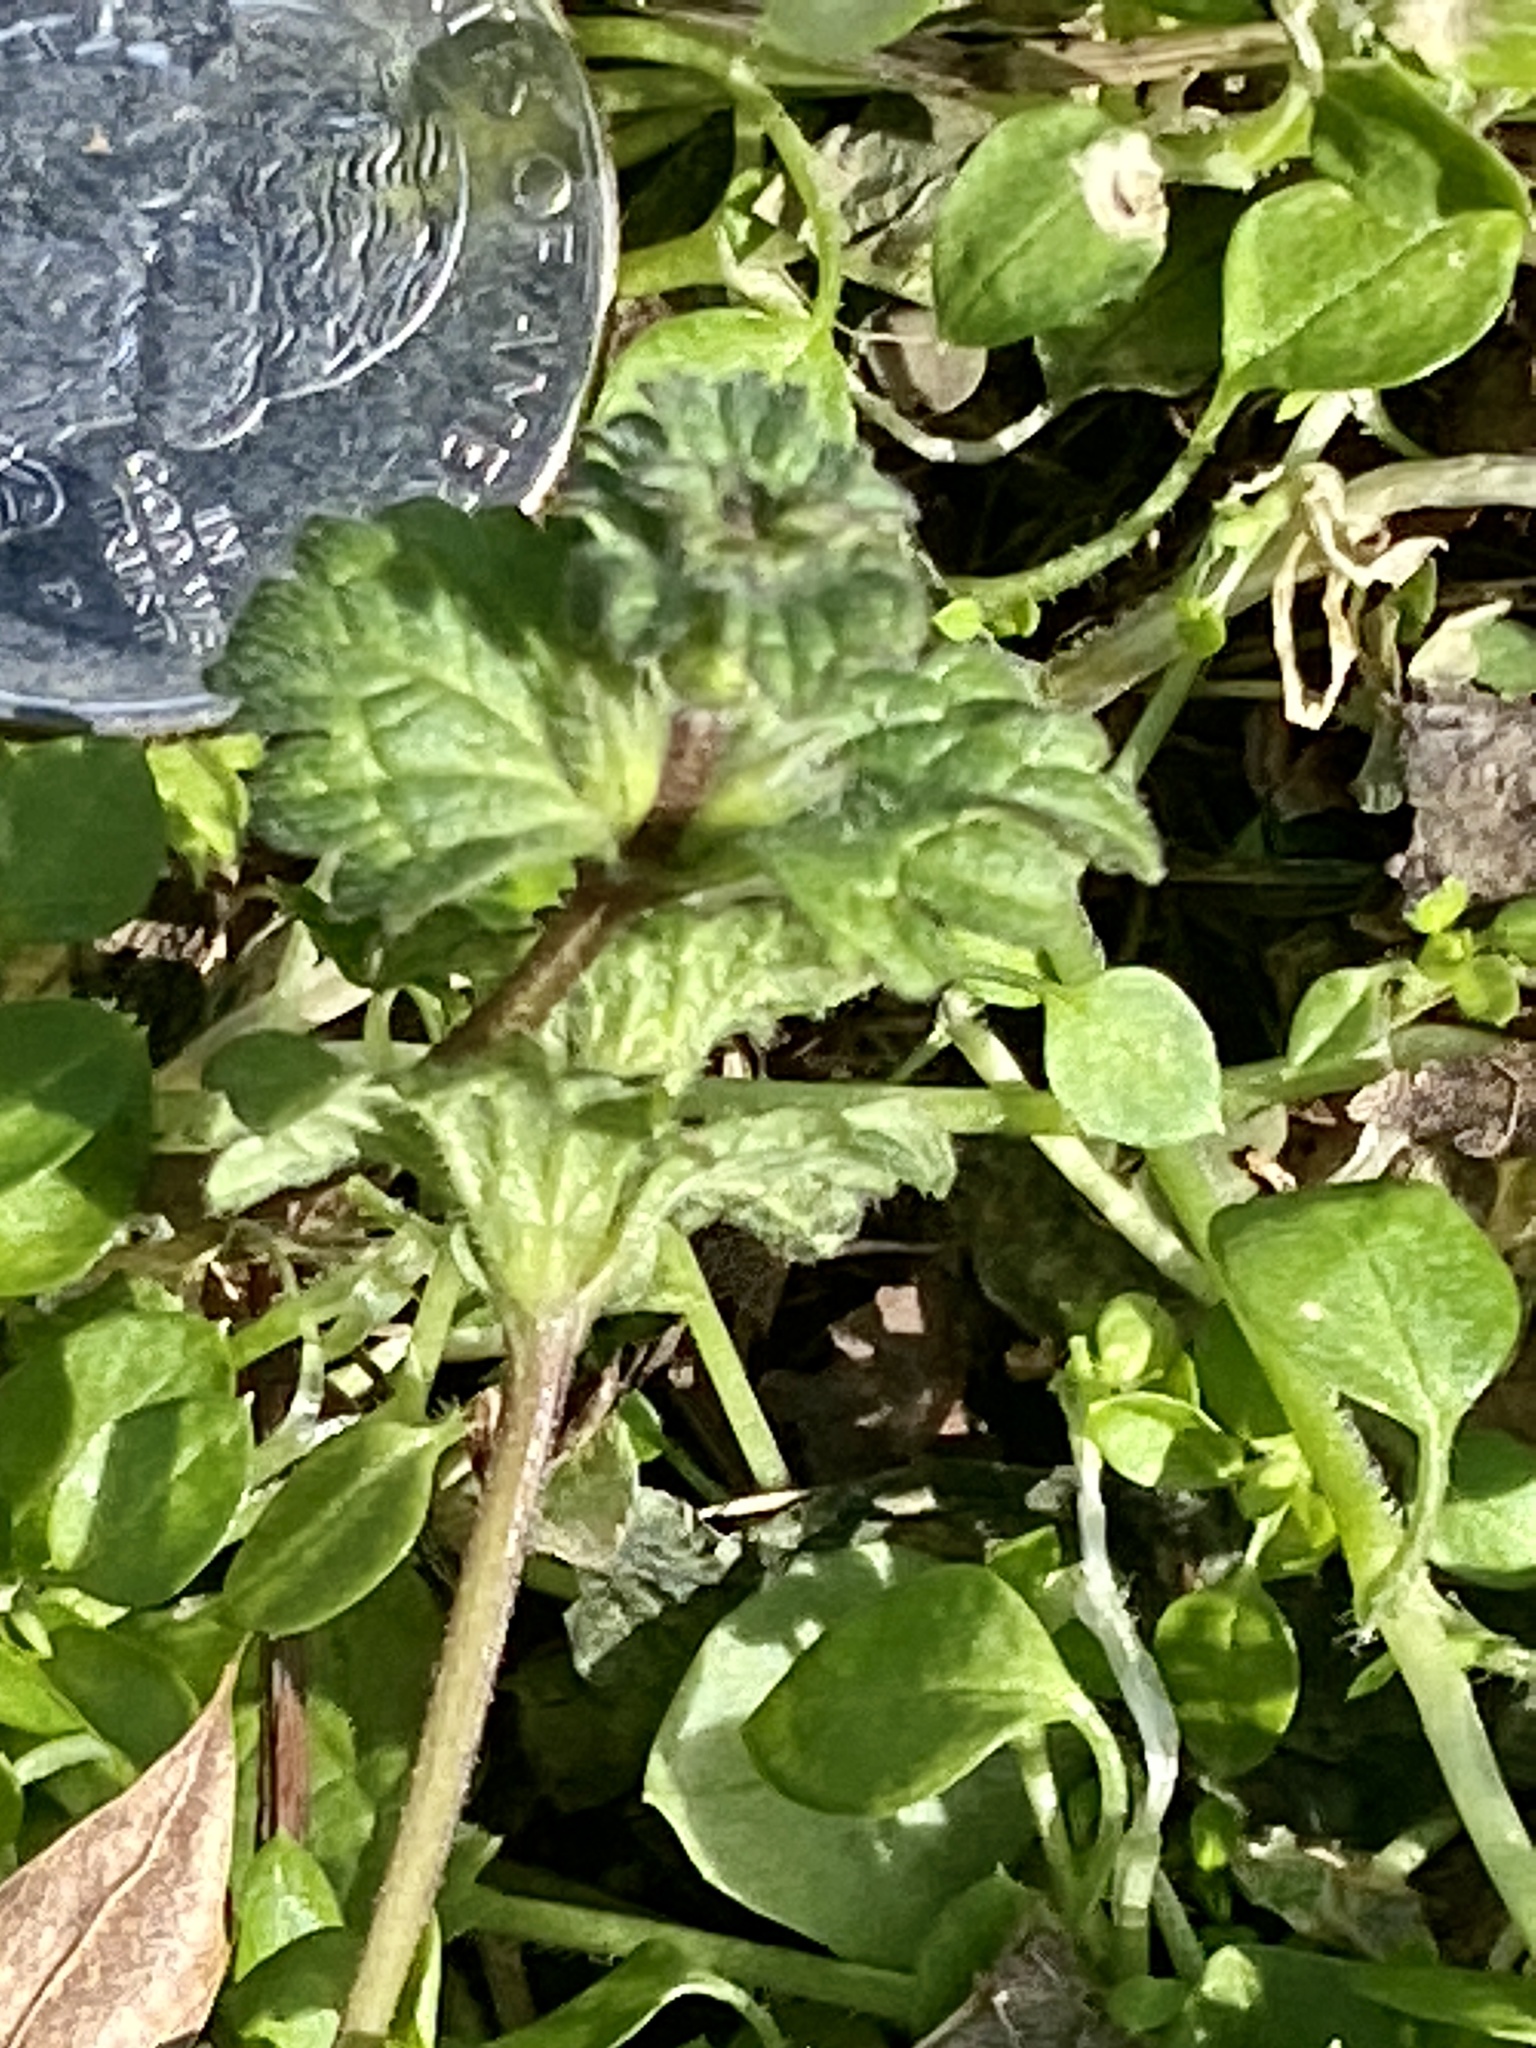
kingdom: Plantae
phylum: Tracheophyta
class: Magnoliopsida
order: Lamiales
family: Lamiaceae
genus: Lamium
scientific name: Lamium amplexicaule
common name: Henbit dead-nettle
